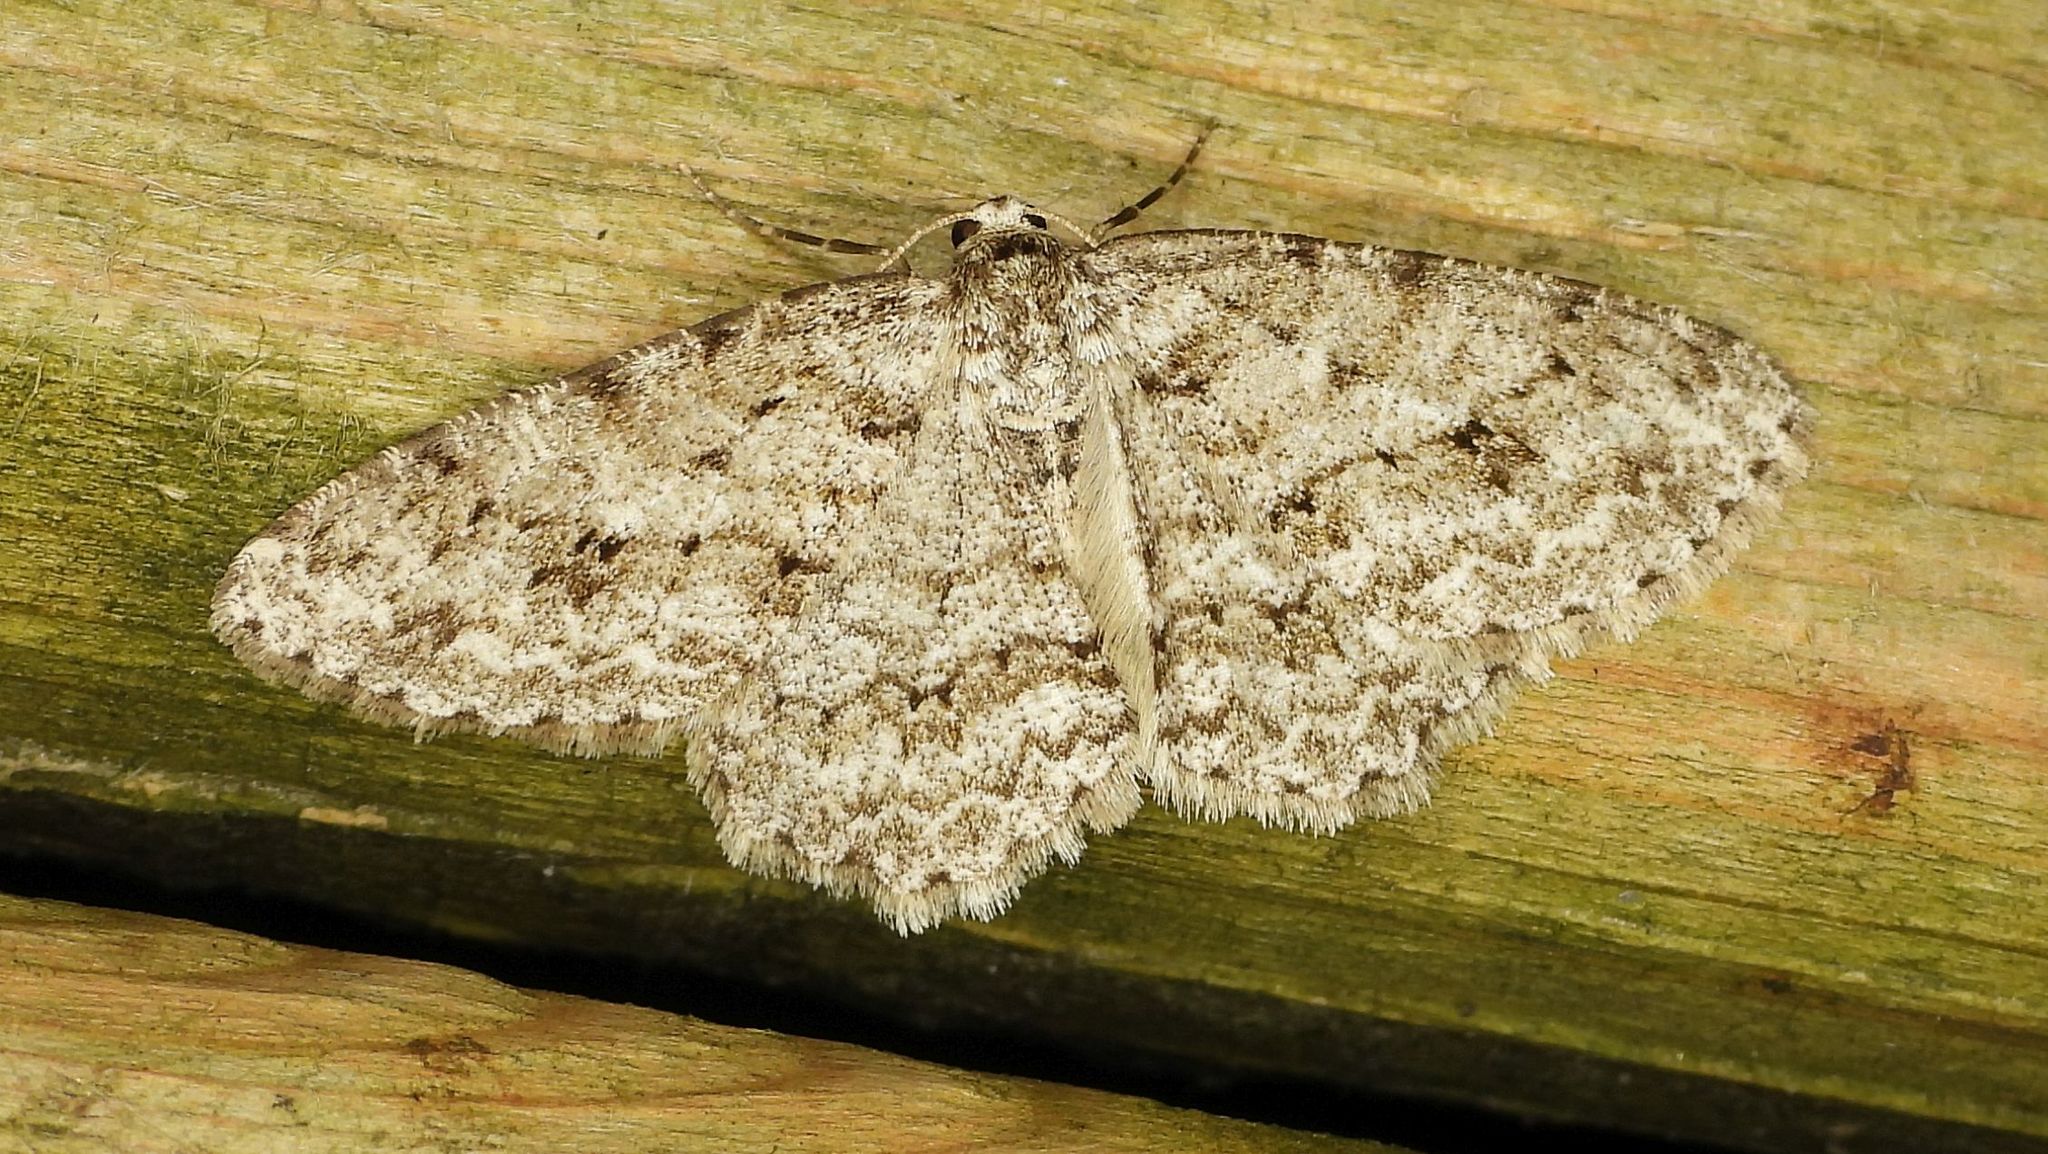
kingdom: Animalia
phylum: Arthropoda
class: Insecta
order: Lepidoptera
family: Geometridae
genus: Ectropis
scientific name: Ectropis crepuscularia
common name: Engrailed
